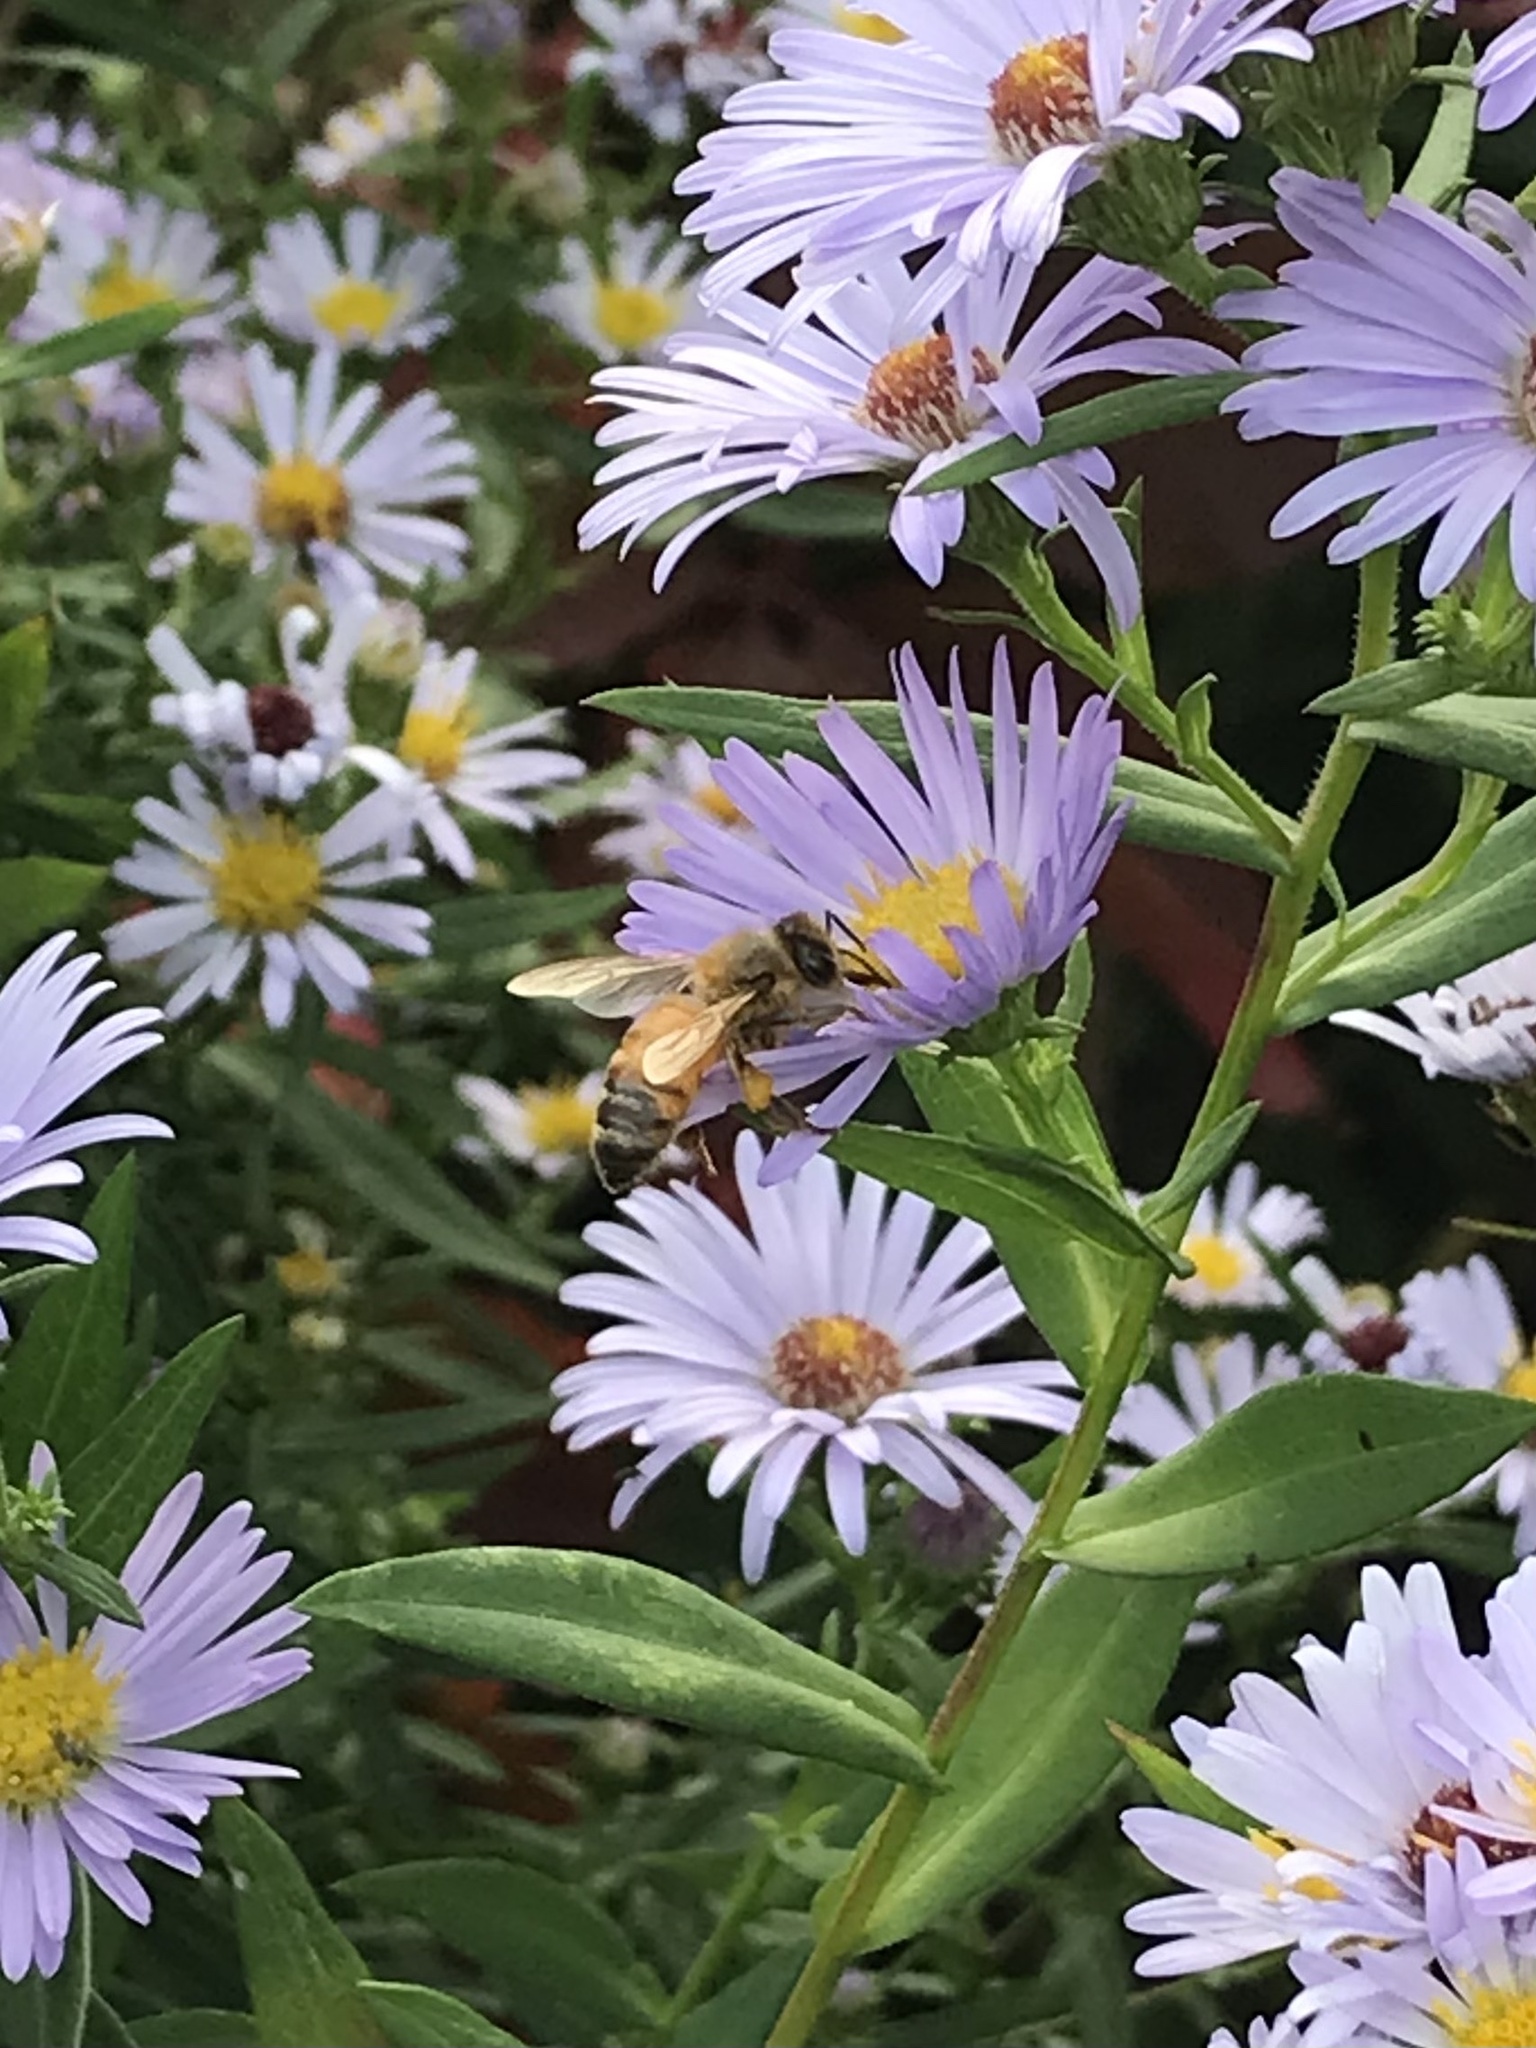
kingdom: Animalia
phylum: Arthropoda
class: Insecta
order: Hymenoptera
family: Apidae
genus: Apis
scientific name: Apis mellifera
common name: Honey bee
